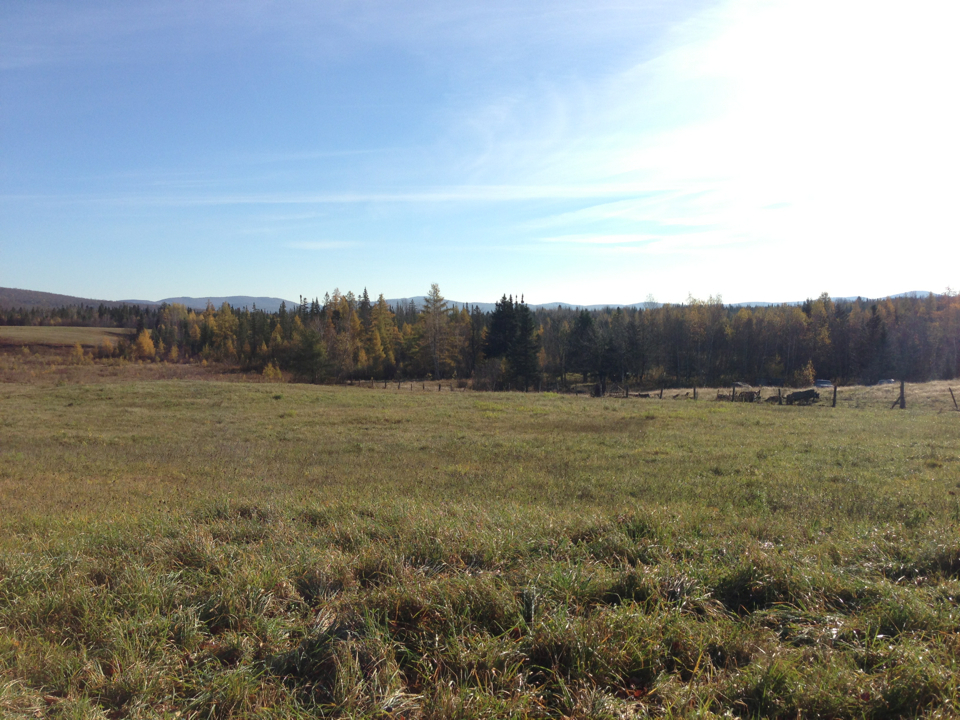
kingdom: Plantae
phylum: Tracheophyta
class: Pinopsida
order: Pinales
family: Pinaceae
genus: Larix
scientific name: Larix laricina
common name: American larch
